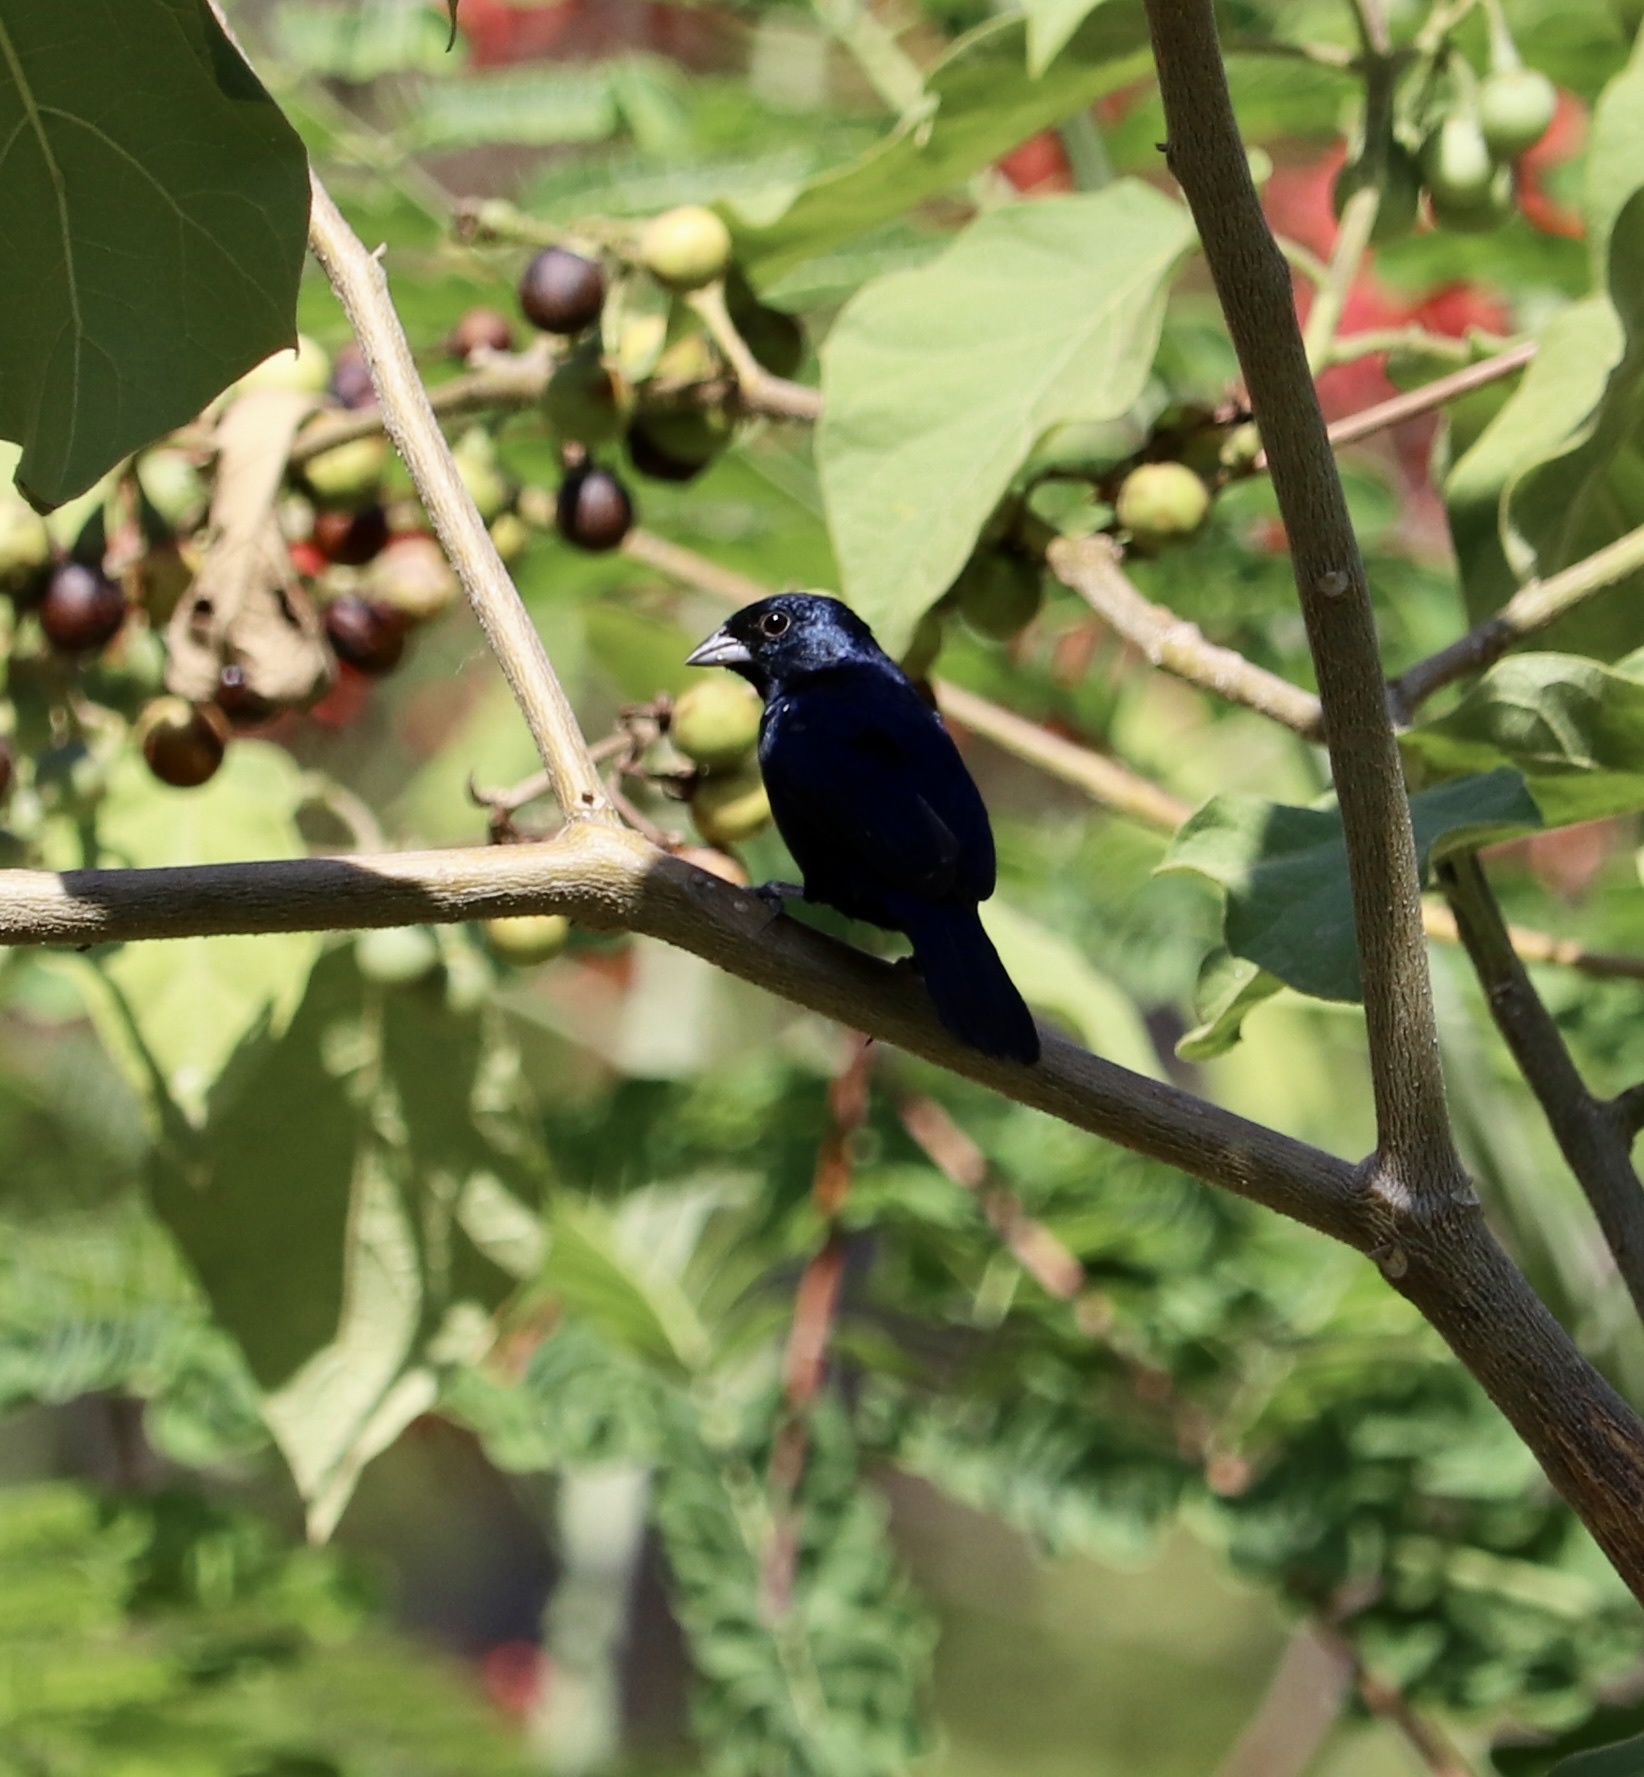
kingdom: Animalia
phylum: Chordata
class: Aves
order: Passeriformes
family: Thraupidae
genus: Volatinia
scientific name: Volatinia jacarina
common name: Blue-black grassquit
